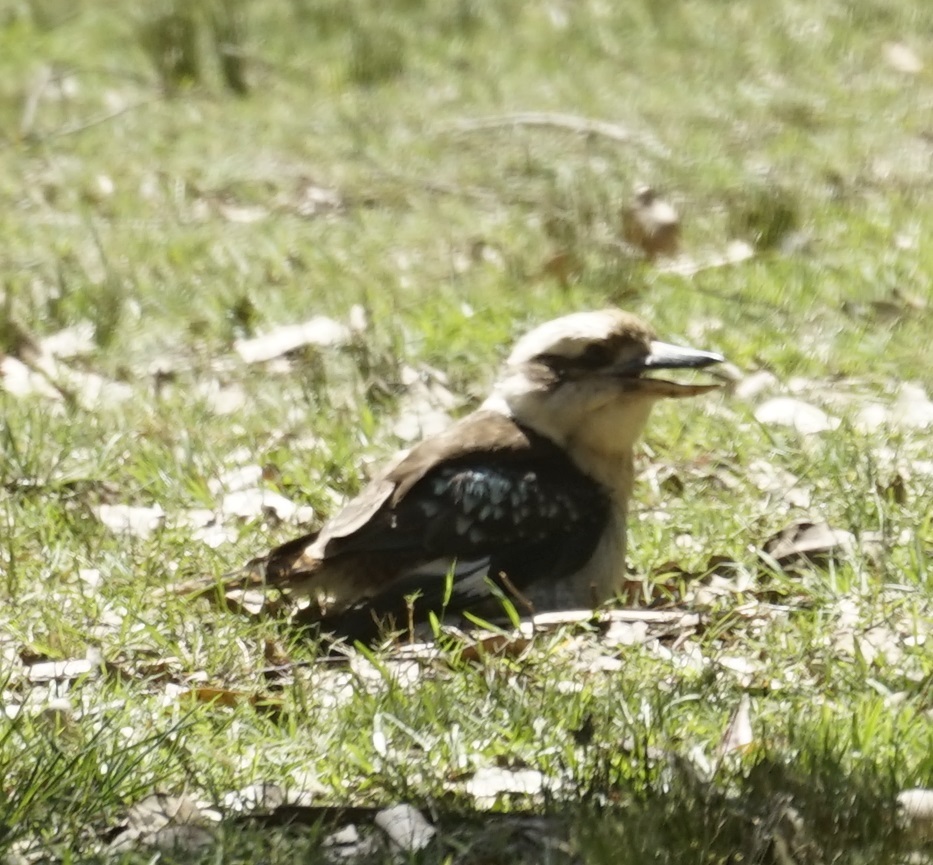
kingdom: Animalia
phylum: Chordata
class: Aves
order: Coraciiformes
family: Alcedinidae
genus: Dacelo
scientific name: Dacelo novaeguineae
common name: Laughing kookaburra
